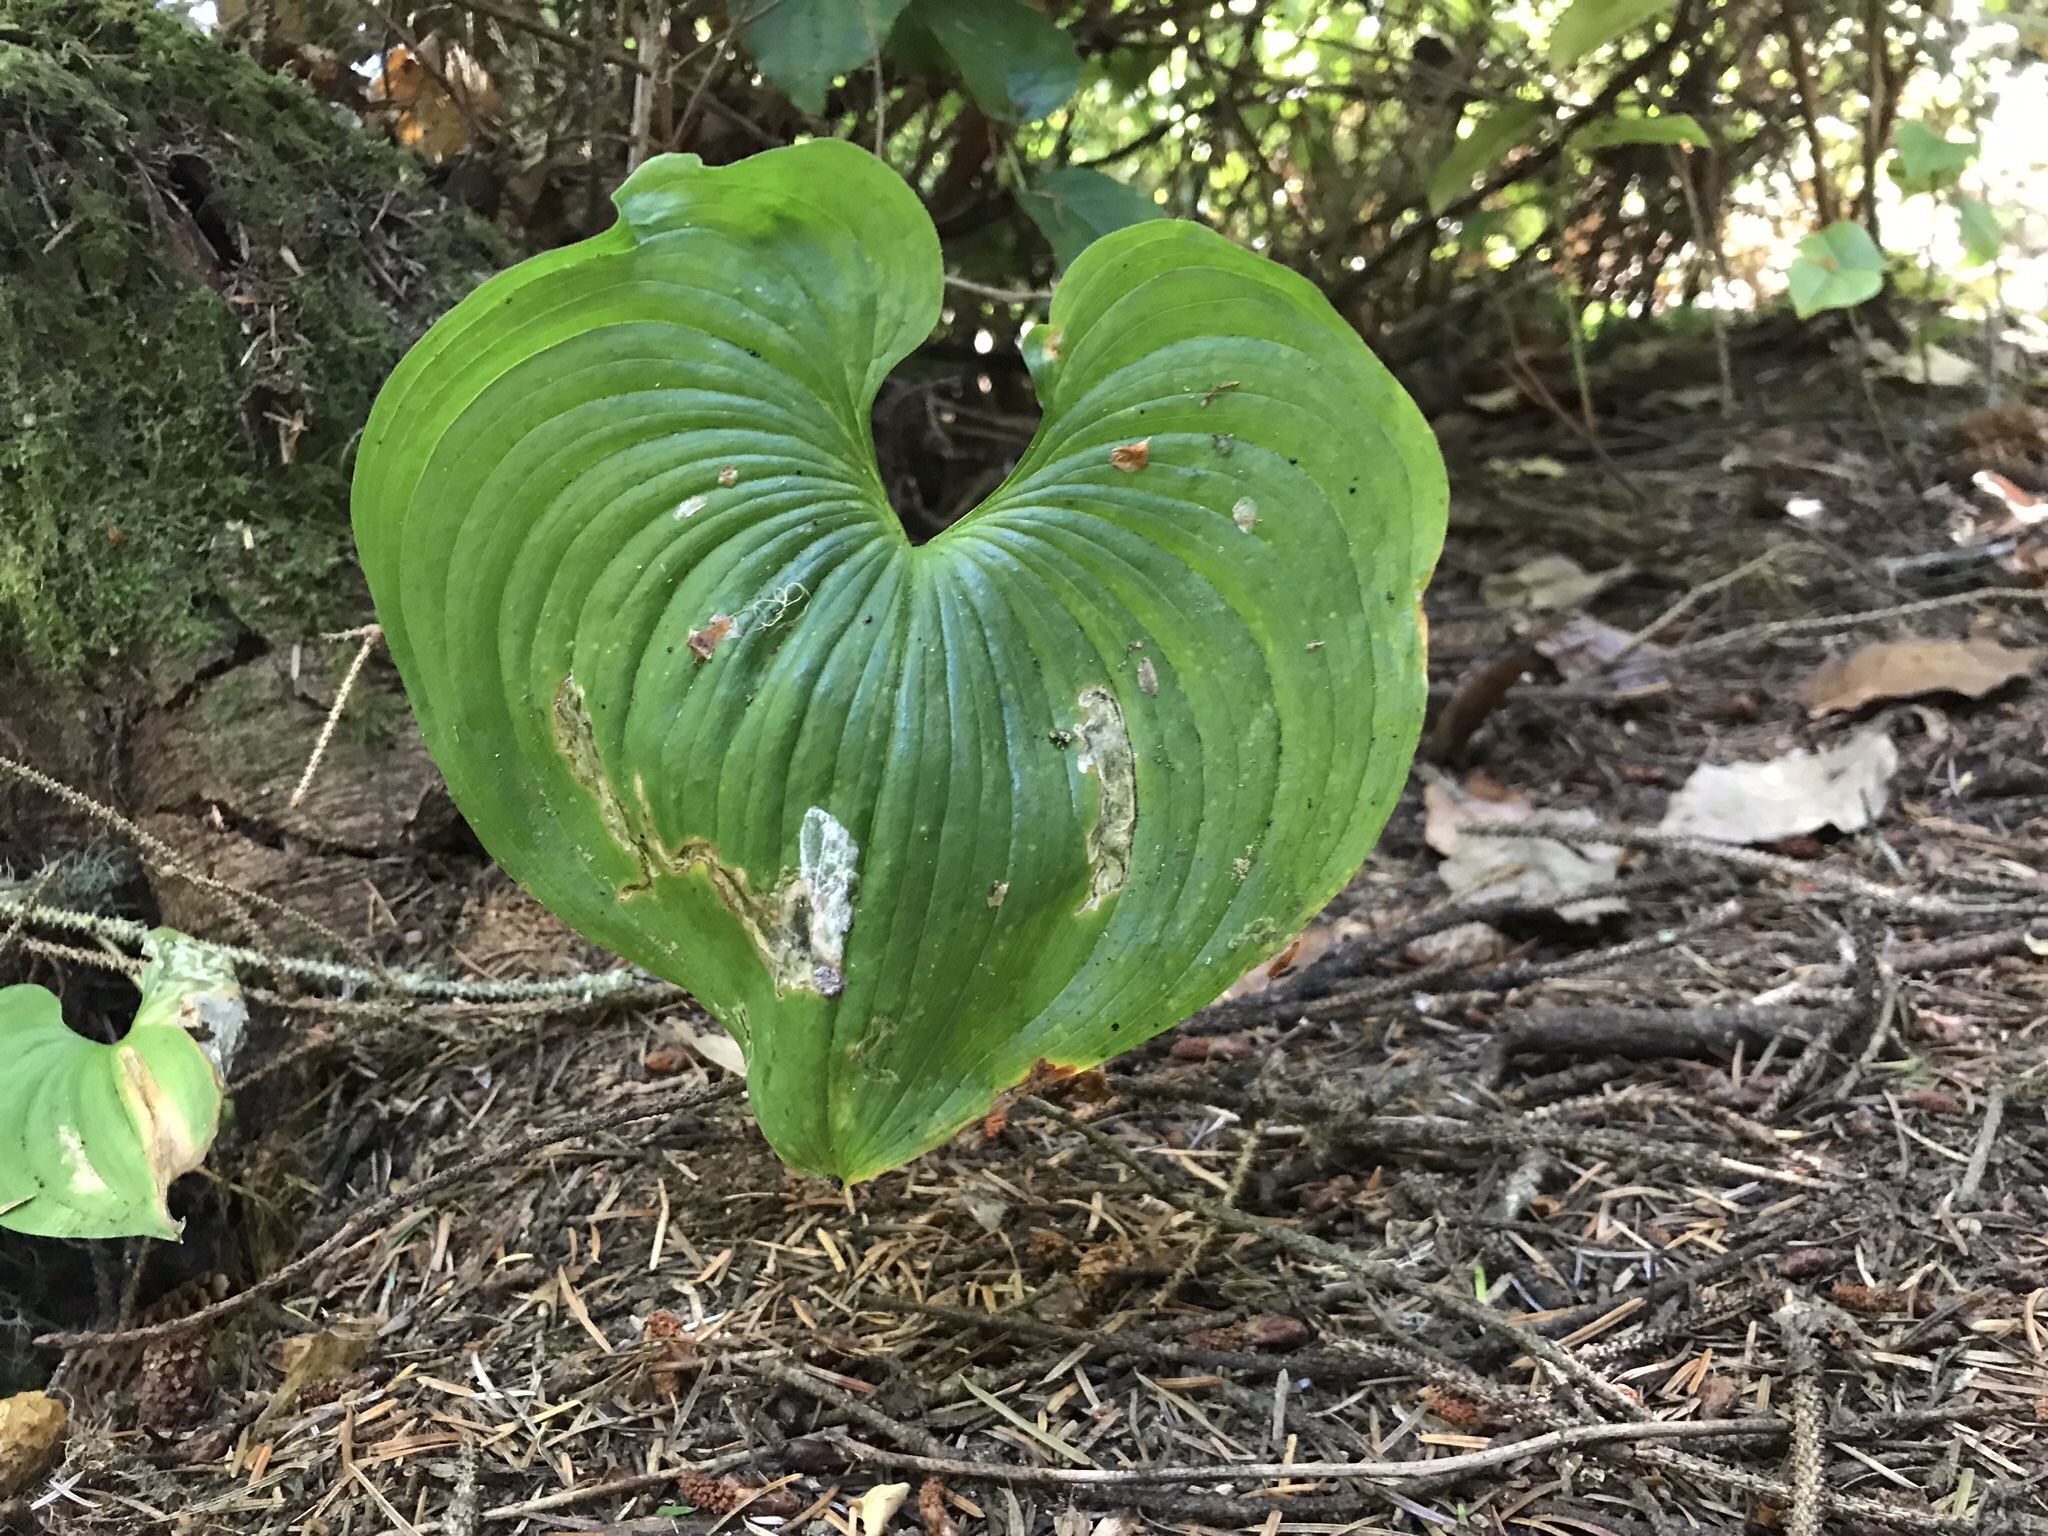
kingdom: Plantae
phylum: Tracheophyta
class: Liliopsida
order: Asparagales
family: Asparagaceae
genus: Maianthemum
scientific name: Maianthemum dilatatum
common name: False lily-of-the-valley
